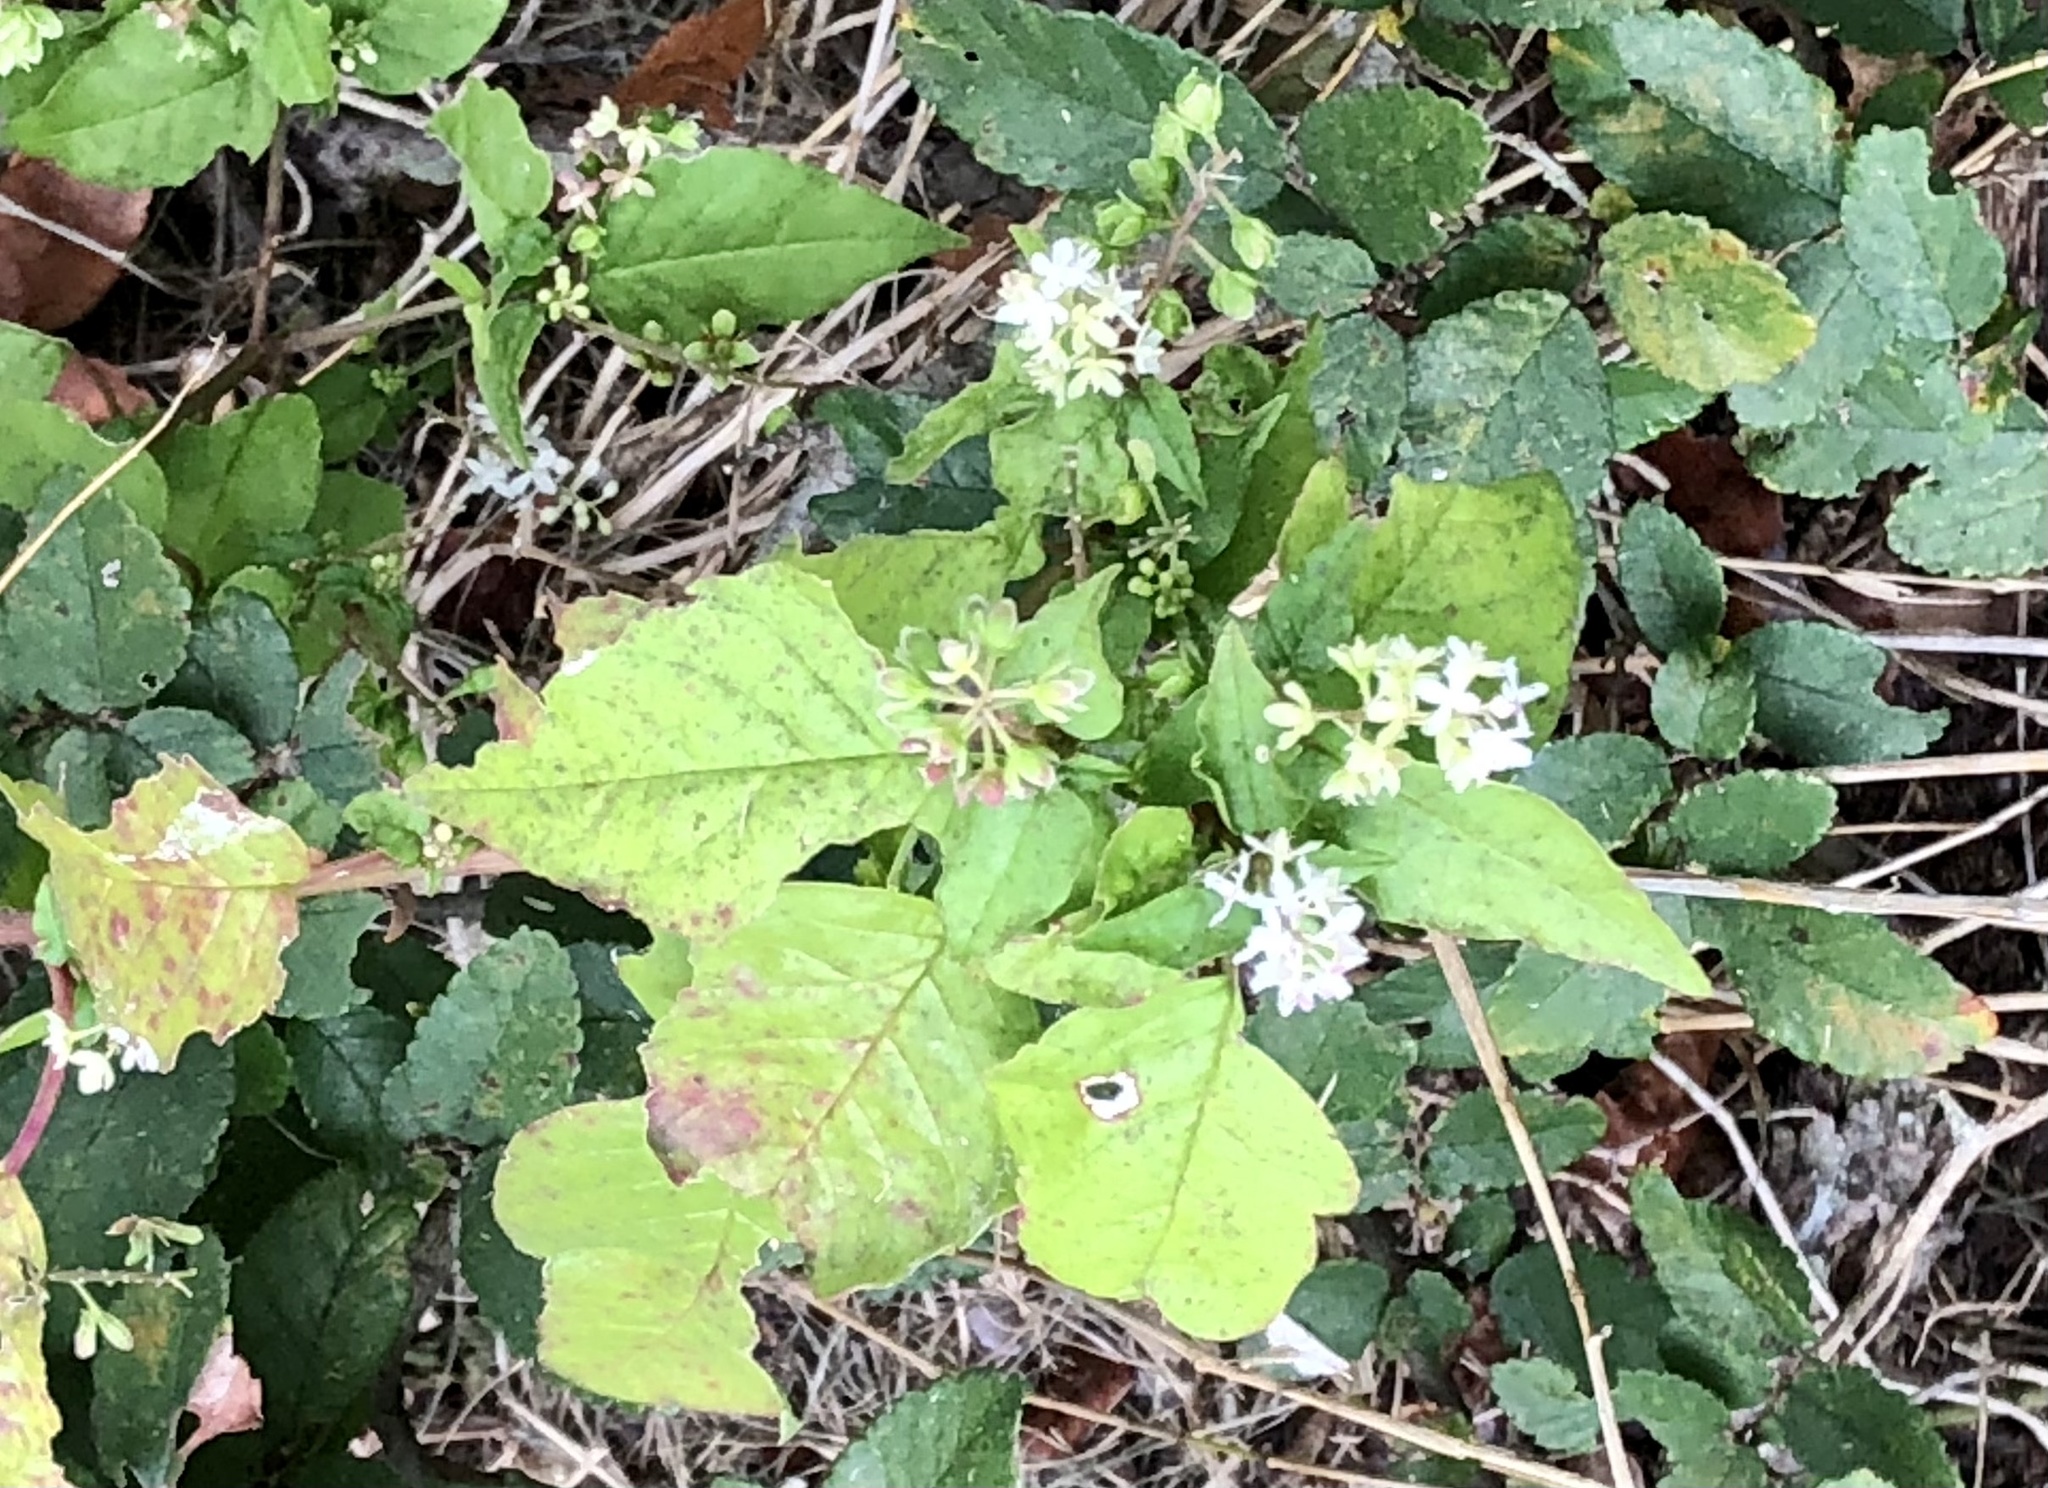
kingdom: Plantae
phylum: Tracheophyta
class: Magnoliopsida
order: Caryophyllales
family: Phytolaccaceae
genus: Rivina
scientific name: Rivina humilis
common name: Rougeplant
